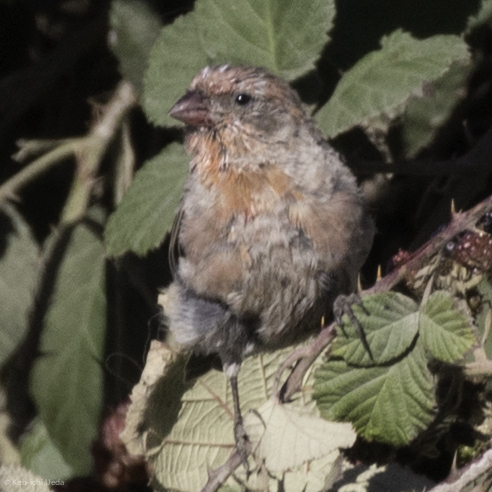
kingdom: Animalia
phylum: Chordata
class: Aves
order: Passeriformes
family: Fringillidae
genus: Haemorhous
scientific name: Haemorhous mexicanus
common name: House finch
